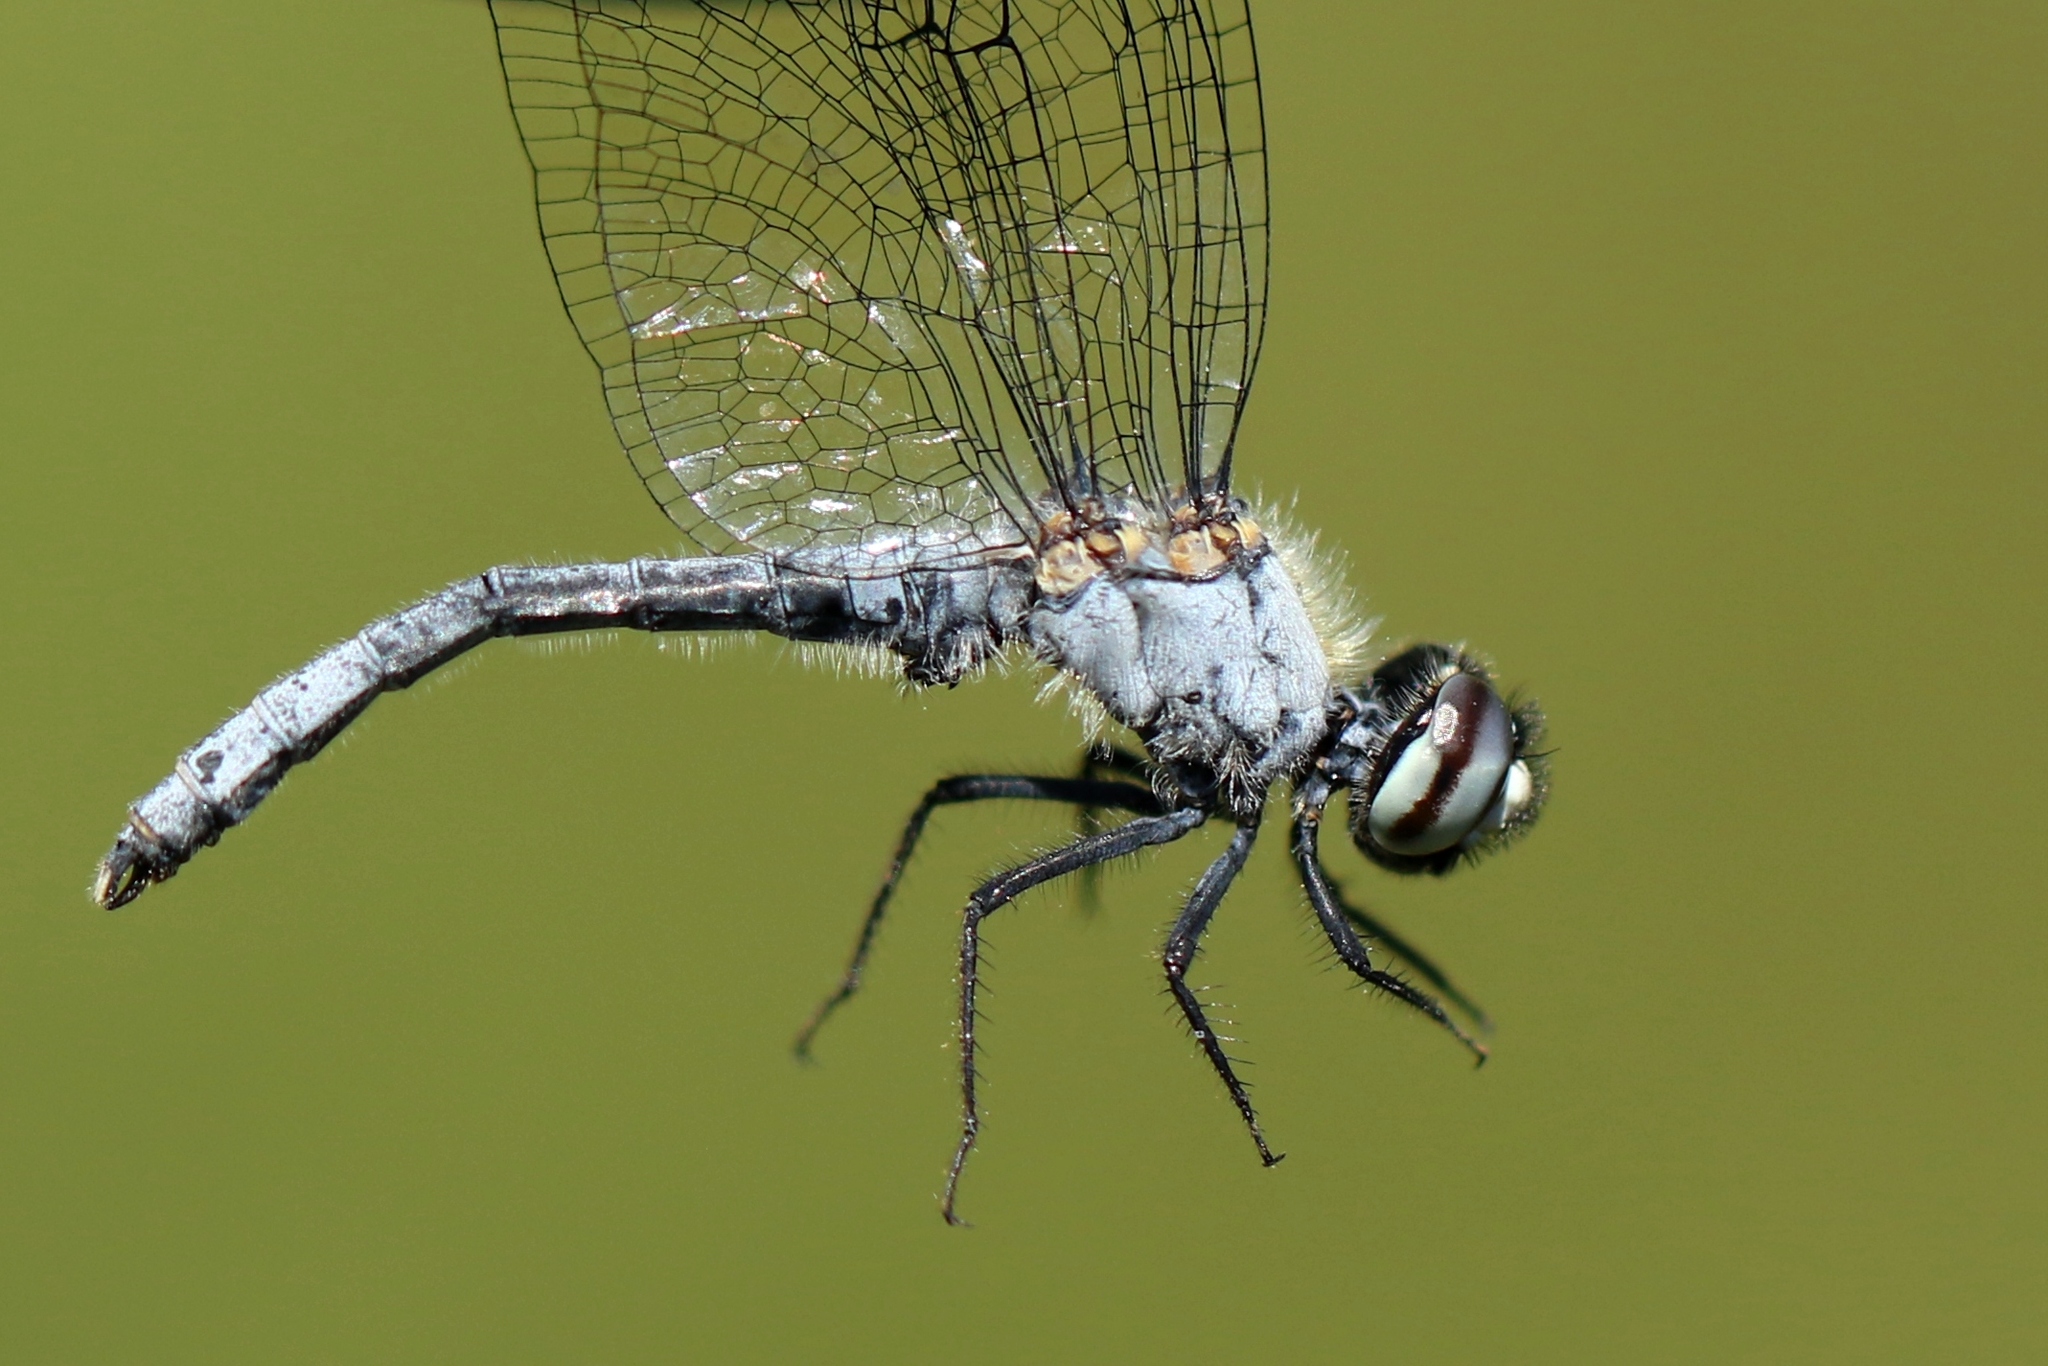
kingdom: Animalia
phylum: Arthropoda
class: Insecta
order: Odonata
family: Libellulidae
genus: Nannothemis
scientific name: Nannothemis bella
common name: Elfin skimmer
